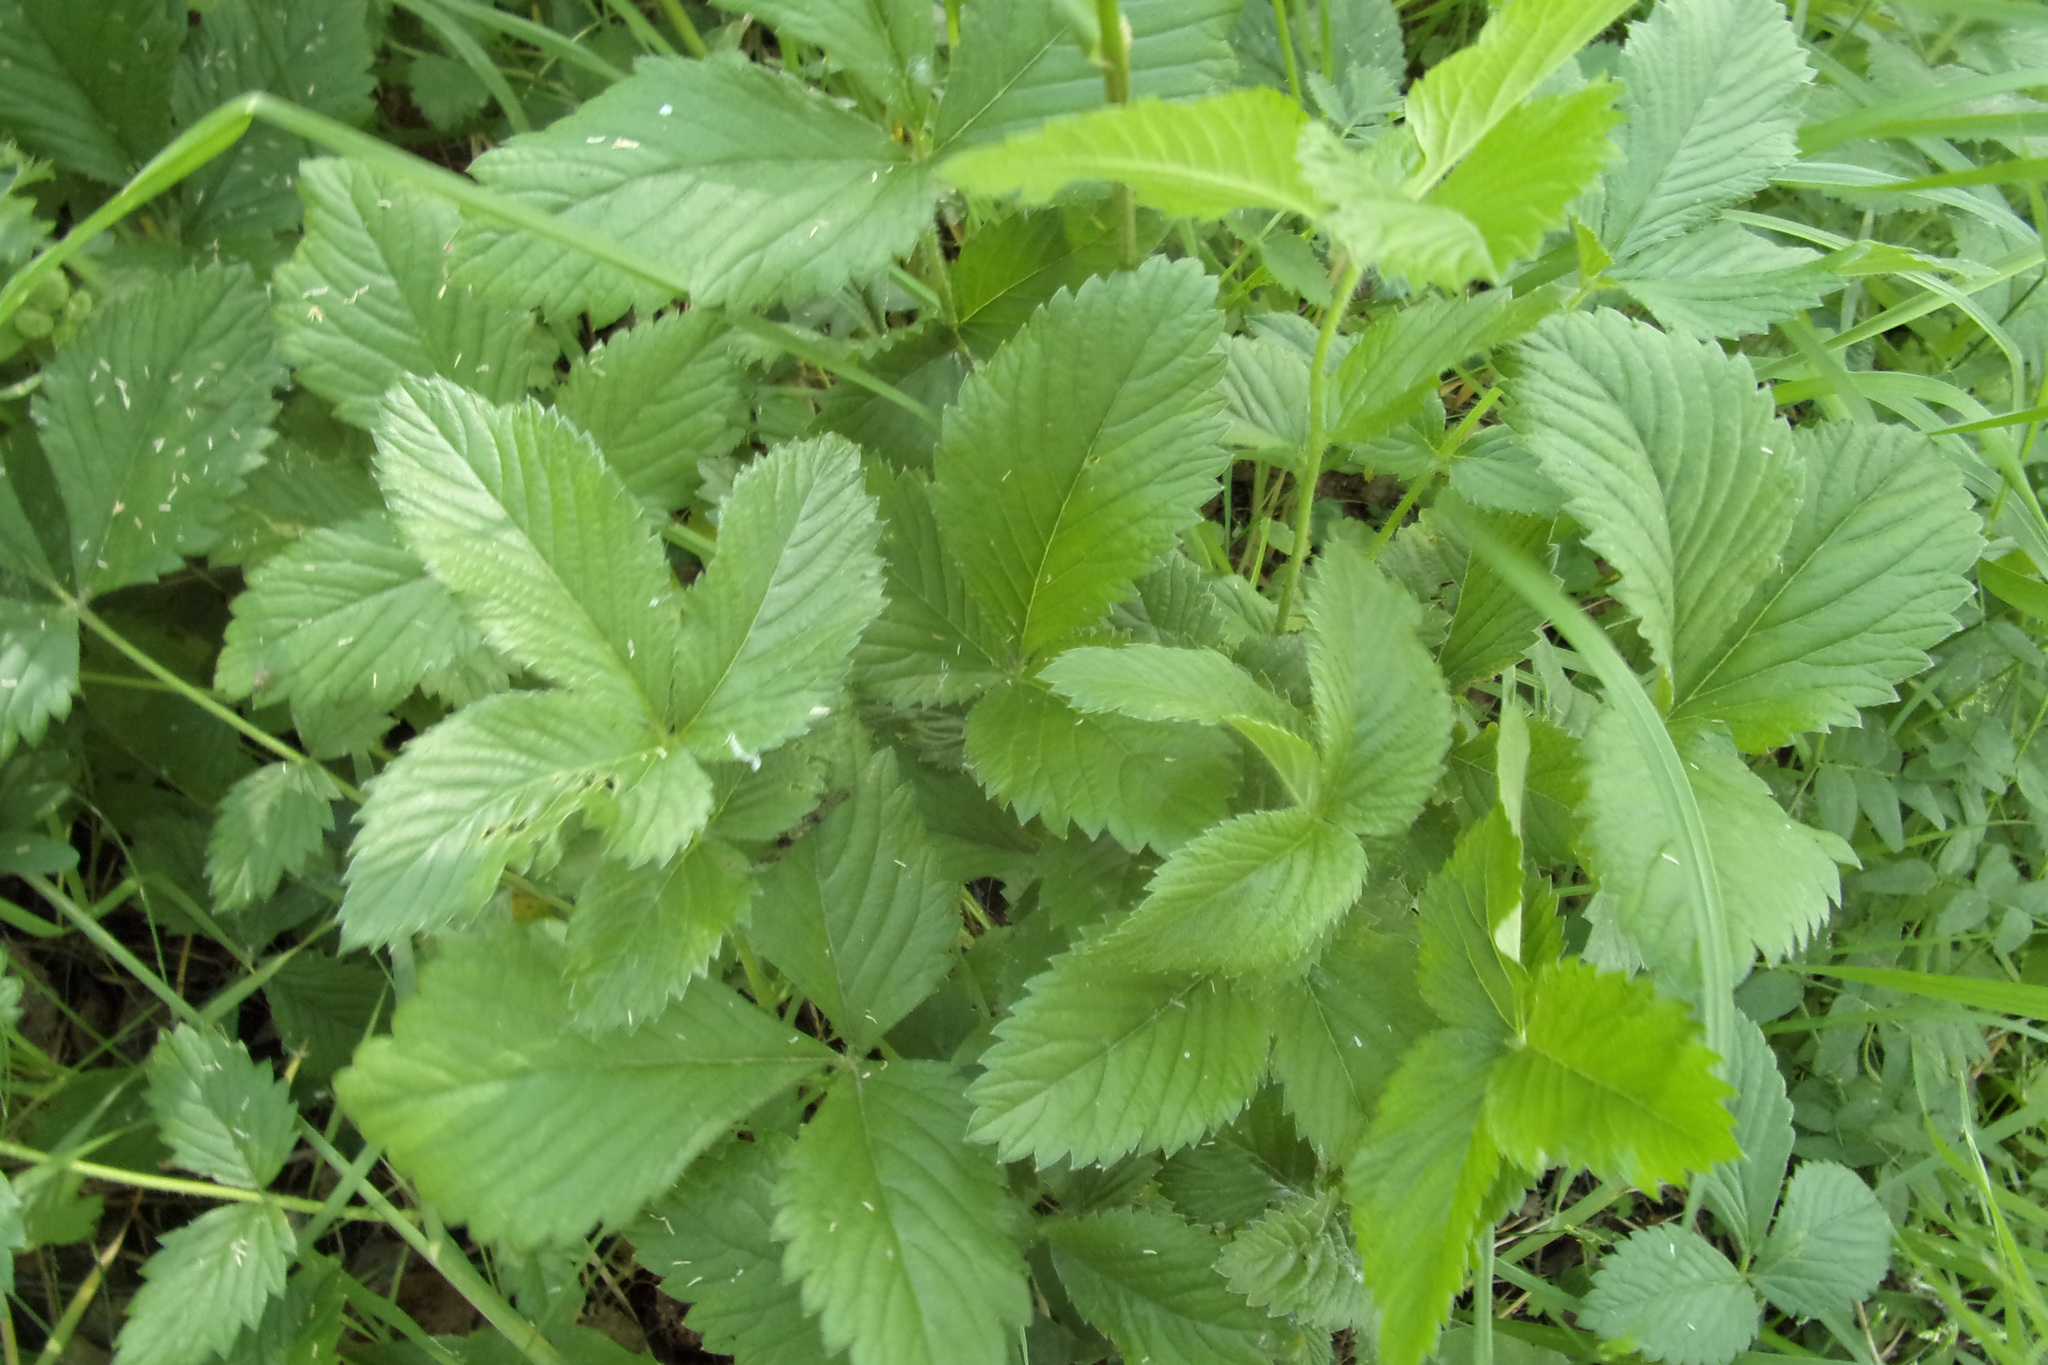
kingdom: Plantae
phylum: Tracheophyta
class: Magnoliopsida
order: Rosales
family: Rosaceae
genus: Potentilla
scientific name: Potentilla fragarioides
